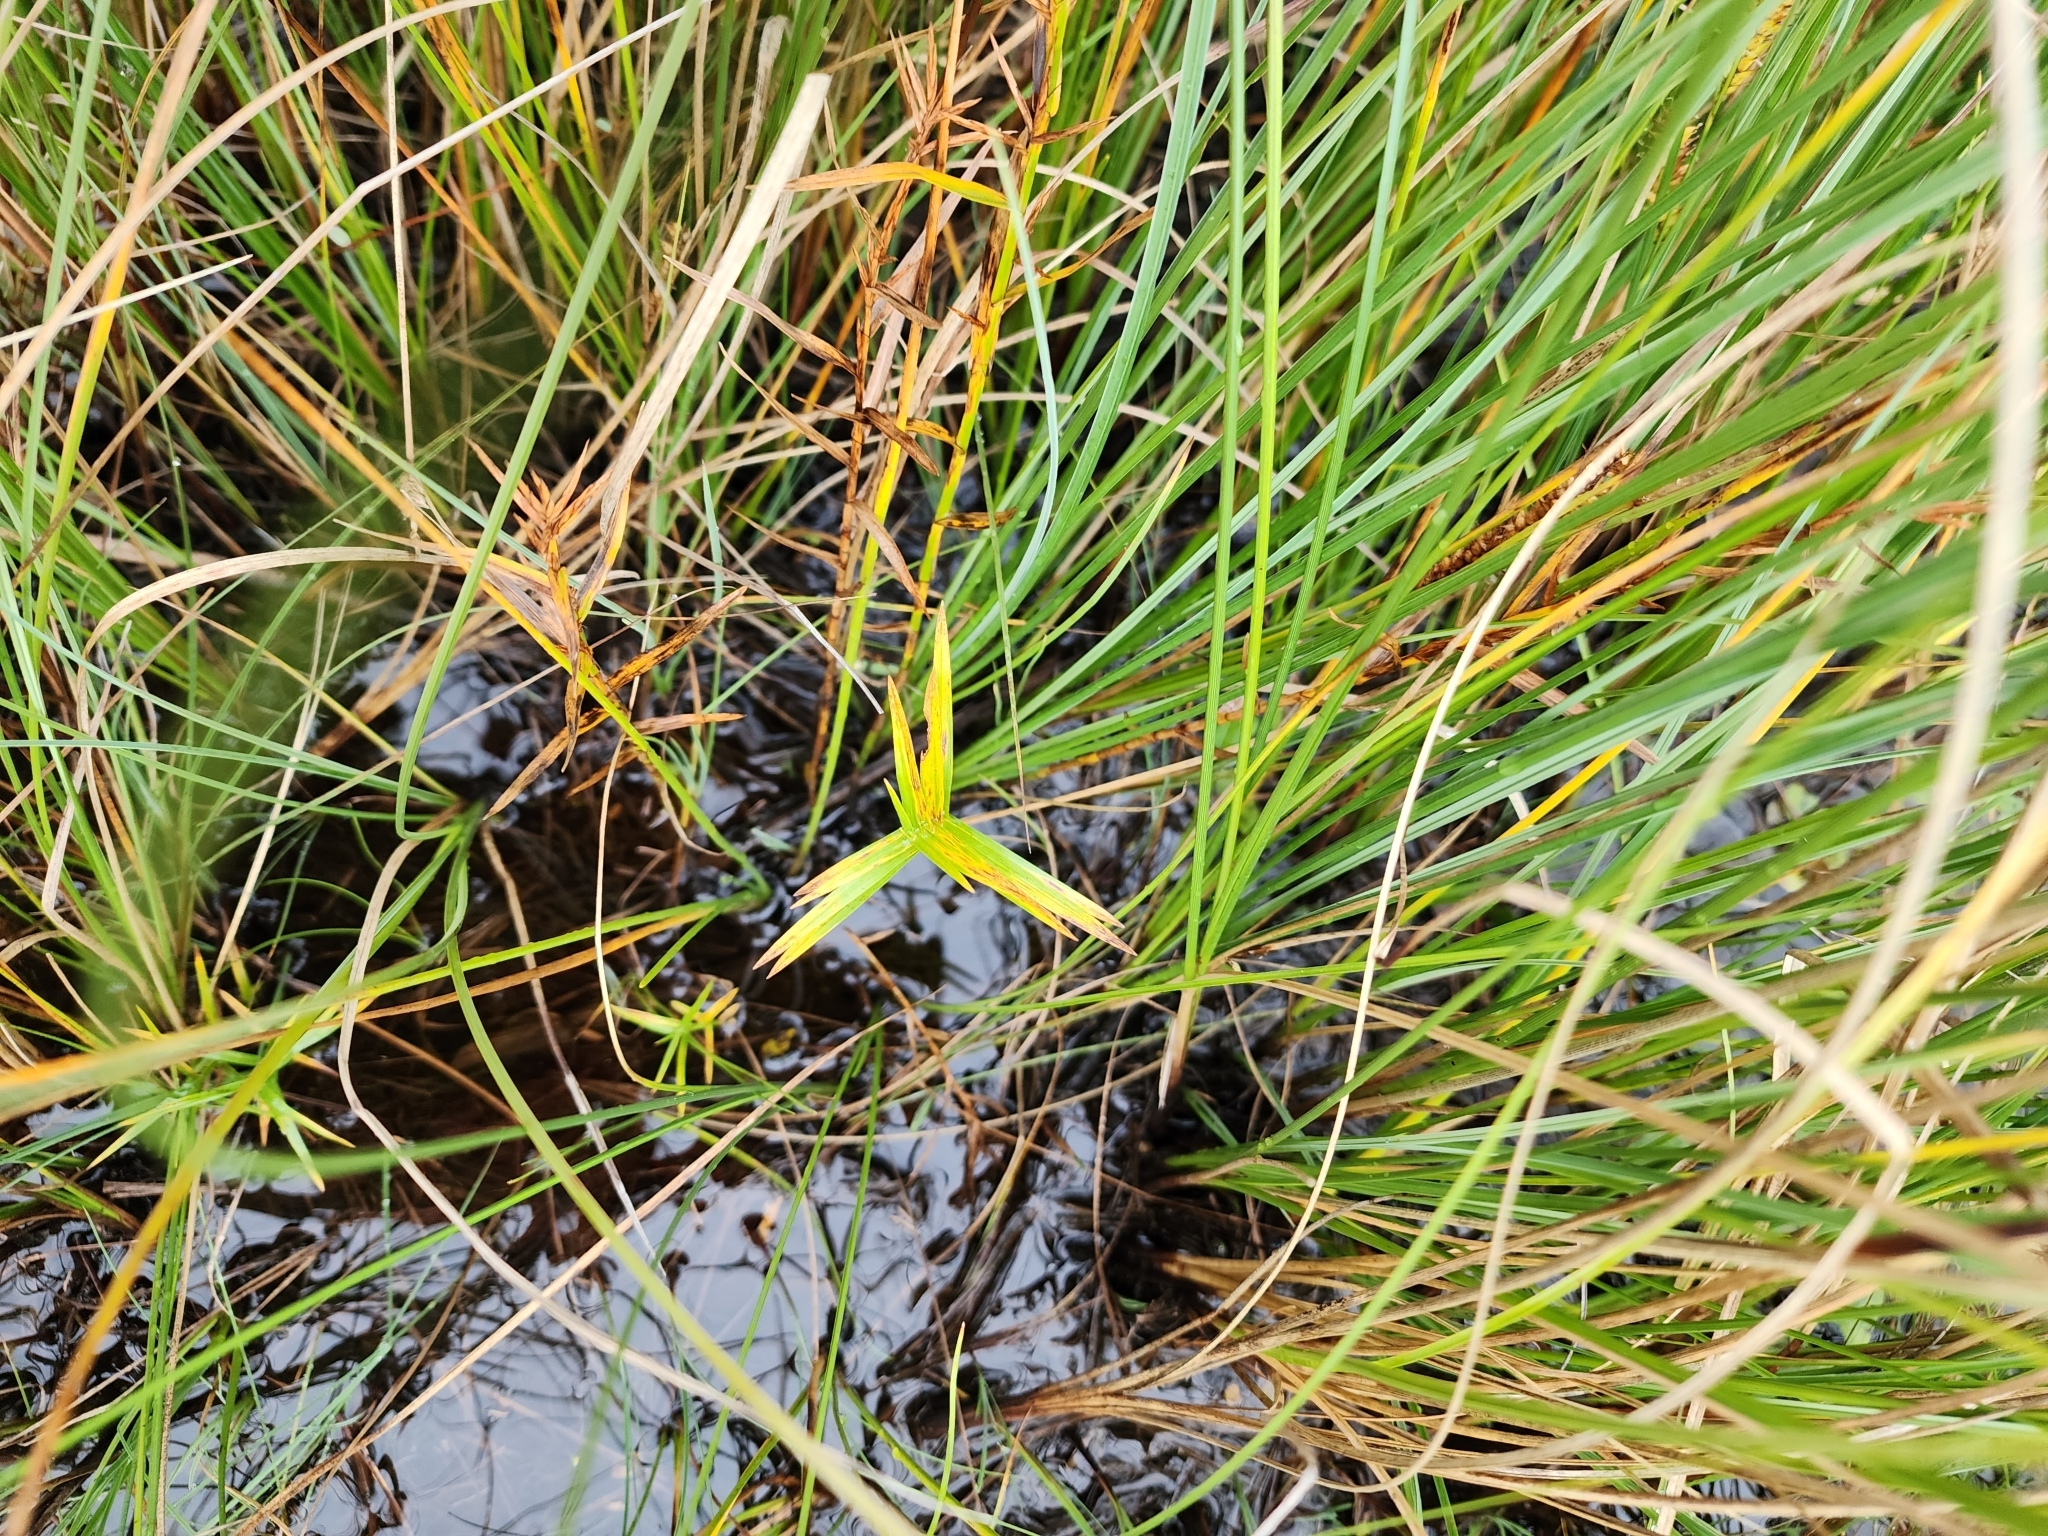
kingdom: Plantae
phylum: Tracheophyta
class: Liliopsida
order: Poales
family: Cyperaceae
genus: Dulichium
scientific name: Dulichium arundinaceum
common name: Three-way sedge
